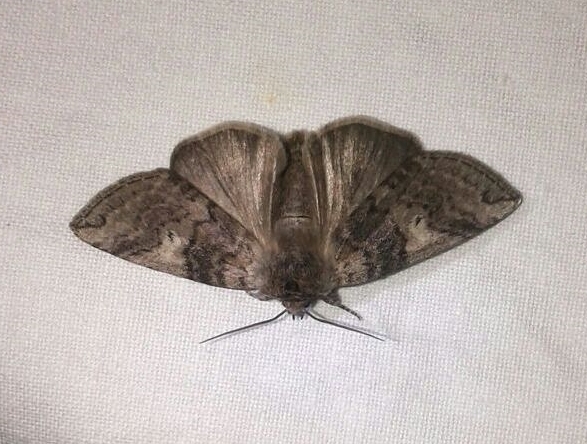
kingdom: Animalia
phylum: Arthropoda
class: Insecta
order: Lepidoptera
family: Drepanidae
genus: Tethea
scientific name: Tethea or
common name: Poplar lutestring
